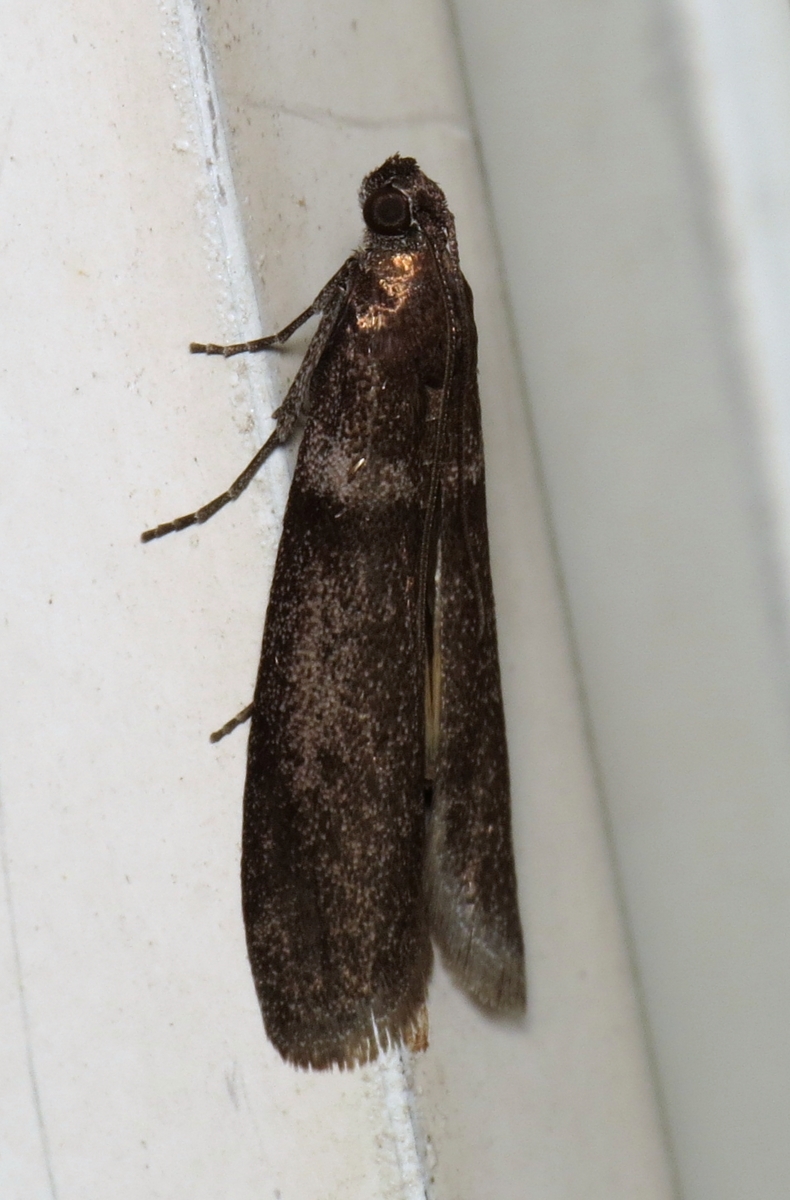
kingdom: Animalia
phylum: Arthropoda
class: Insecta
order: Lepidoptera
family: Pyralidae
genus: Myelopsis
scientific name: Myelopsis subtetricella
